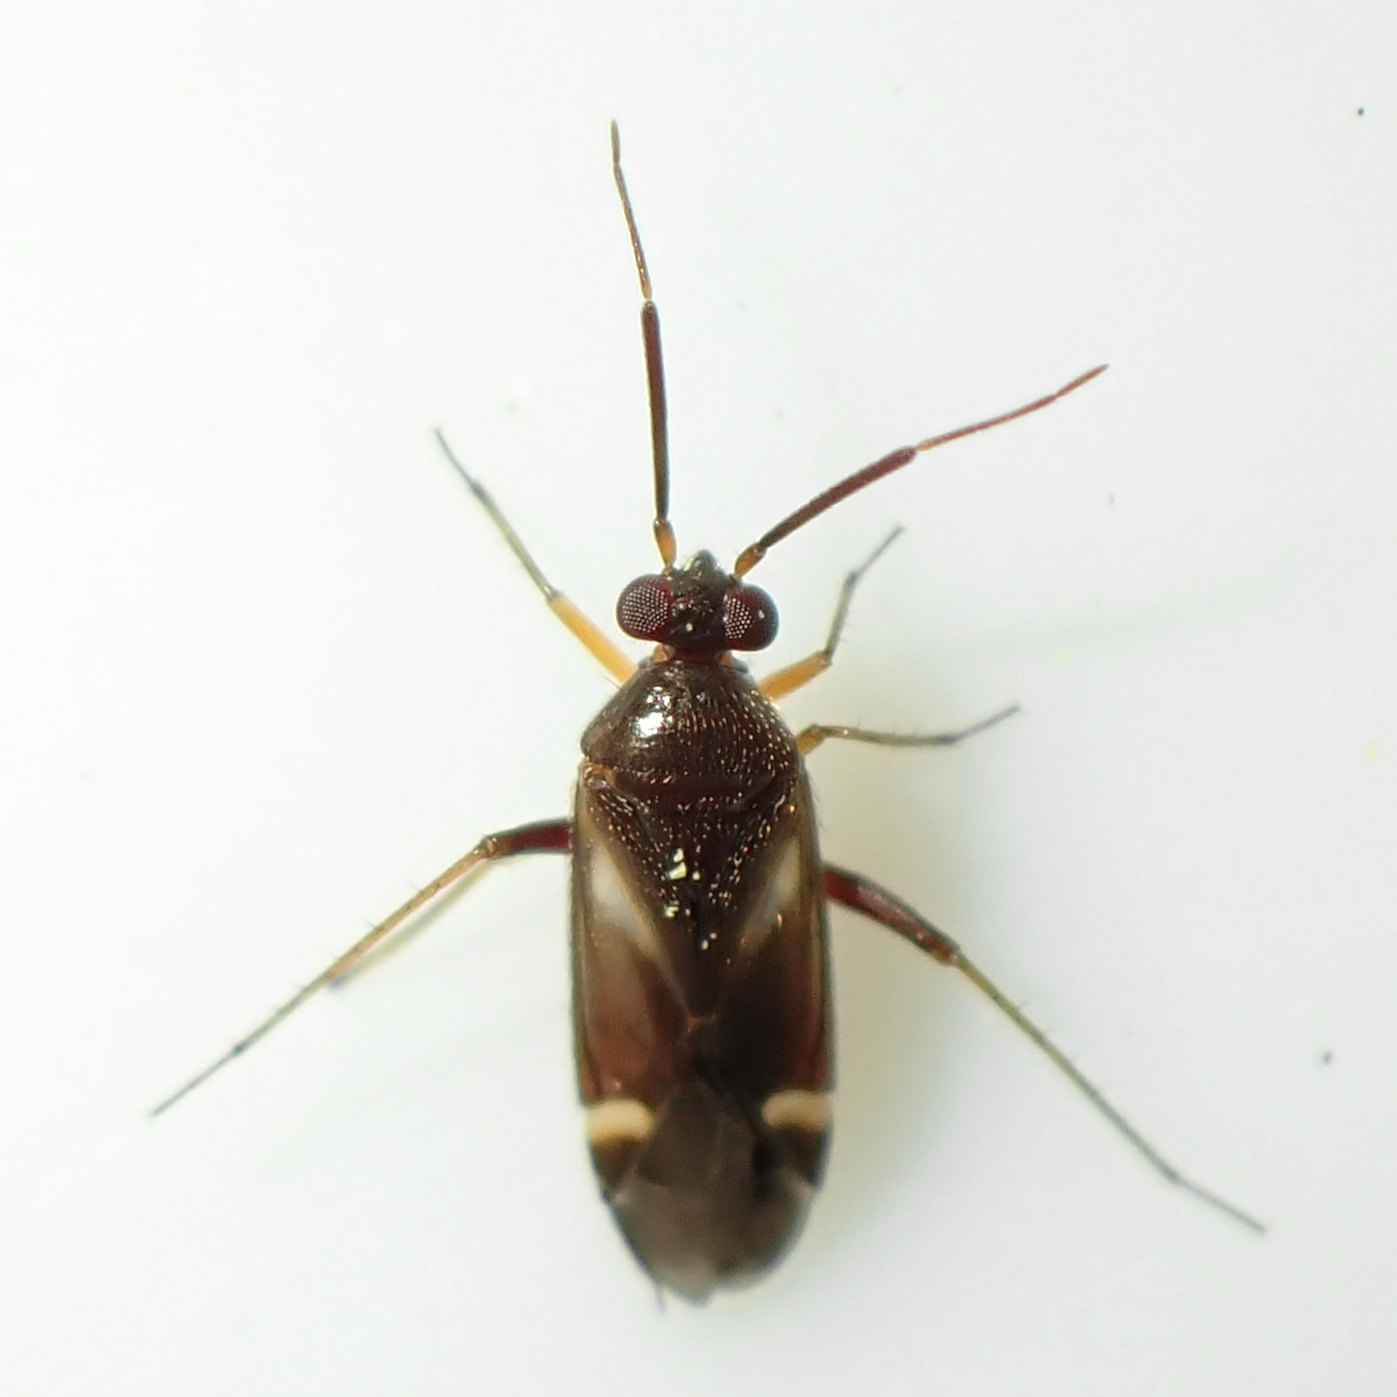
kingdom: Animalia
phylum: Arthropoda
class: Insecta
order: Hemiptera
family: Miridae
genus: Ausejanus
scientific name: Ausejanus albisignatus
